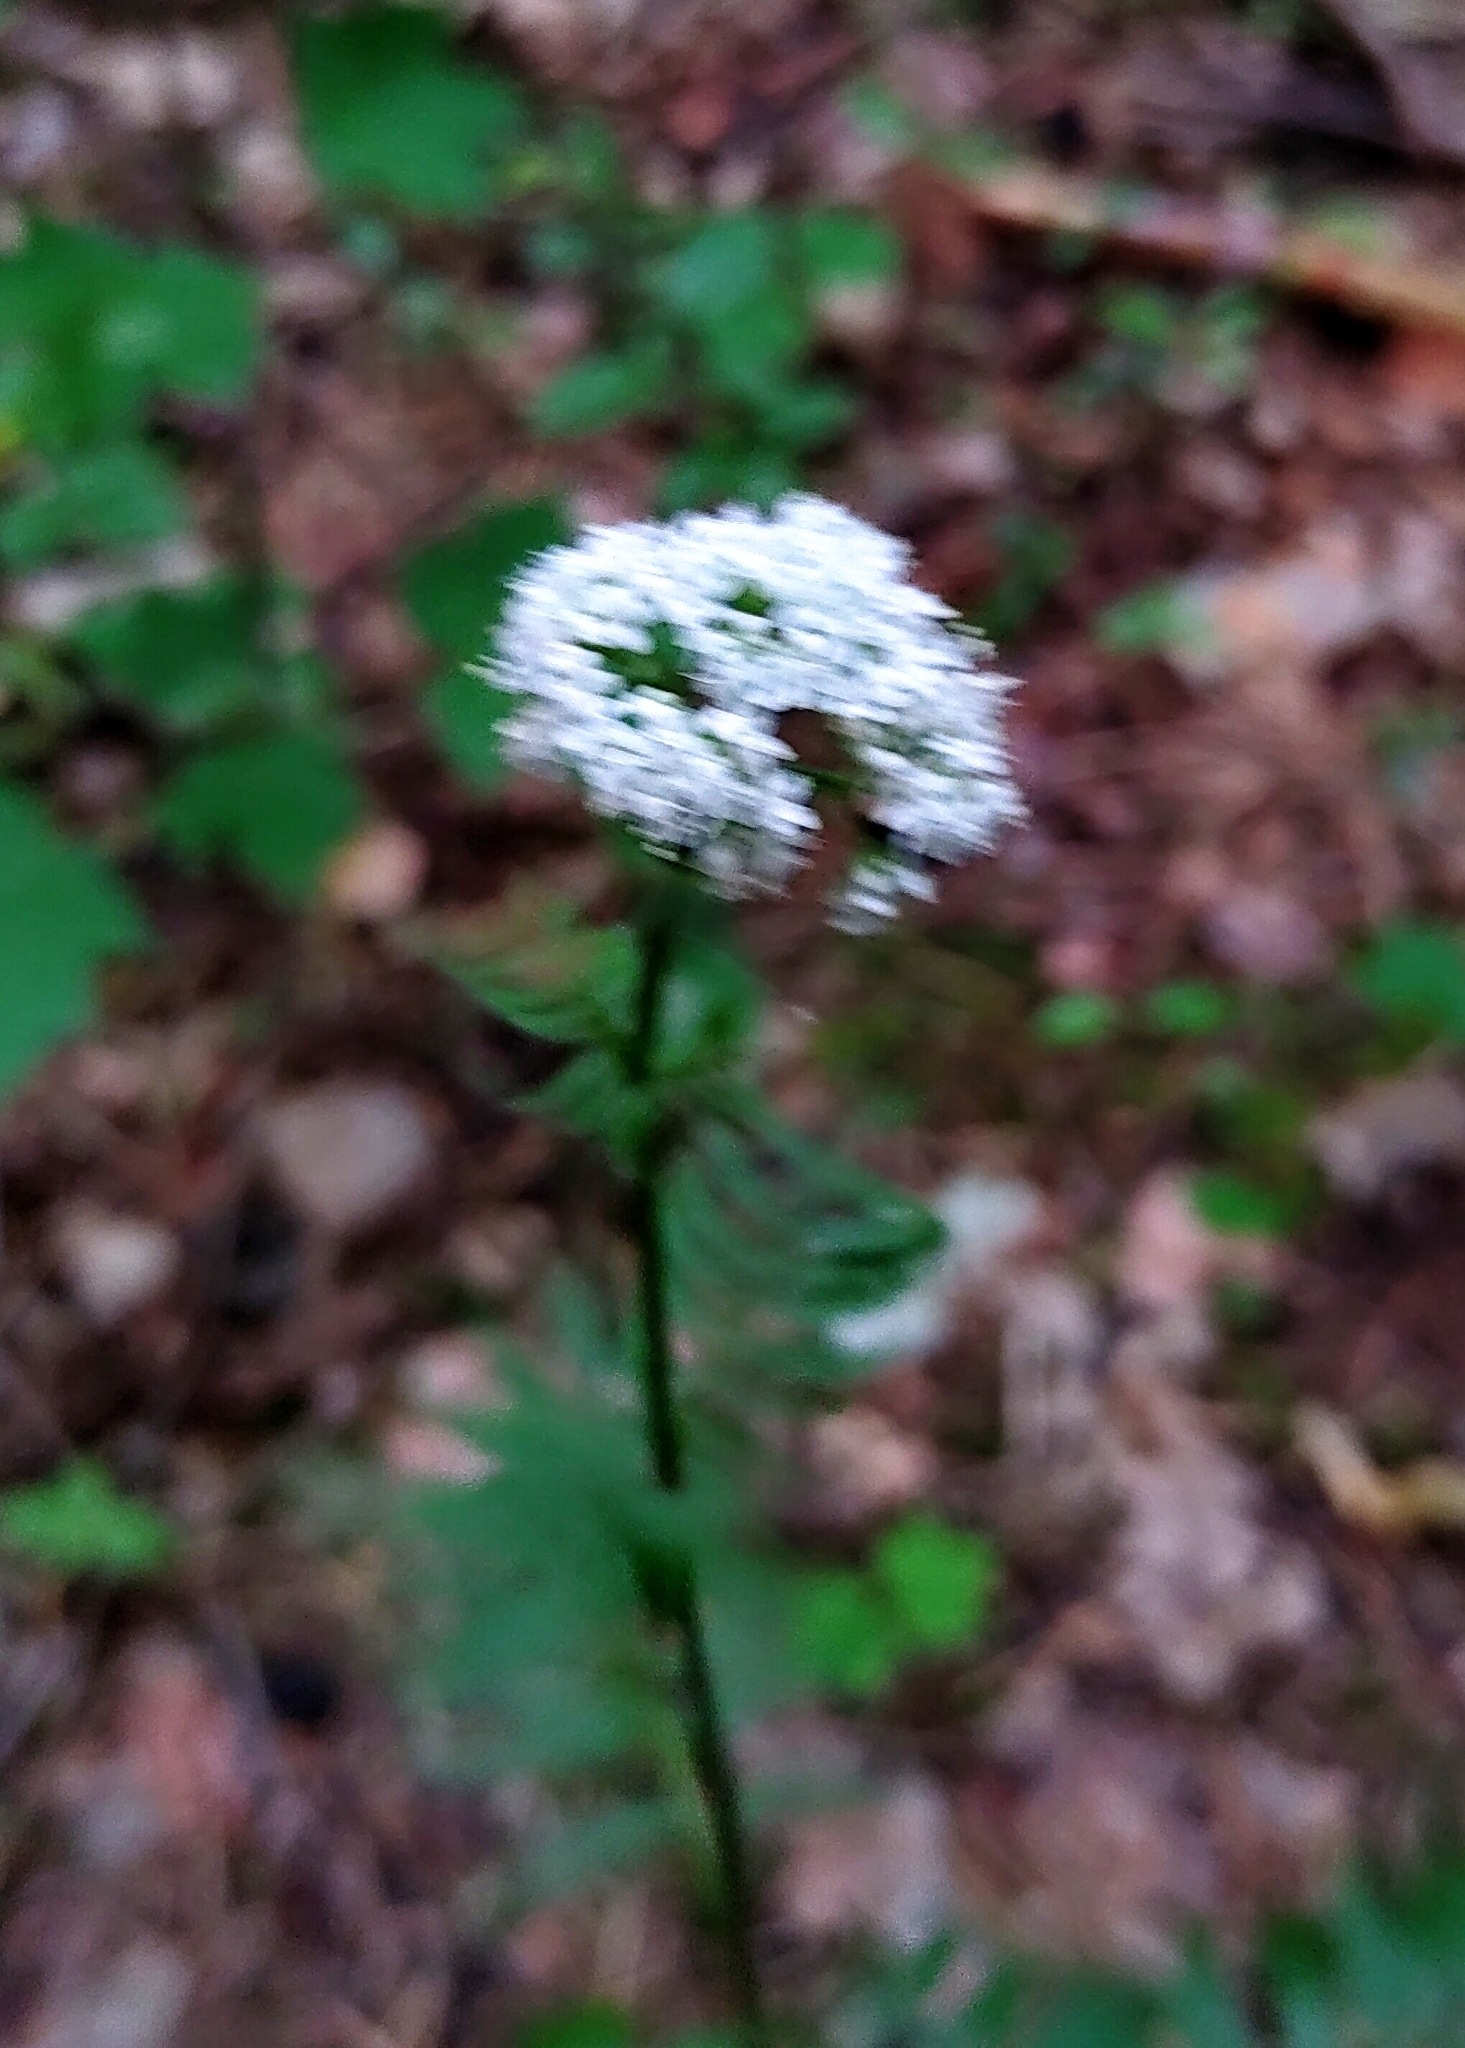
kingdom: Plantae
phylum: Tracheophyta
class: Magnoliopsida
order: Dipsacales
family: Caprifoliaceae
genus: Valeriana
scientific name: Valeriana officinalis
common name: Common valerian
